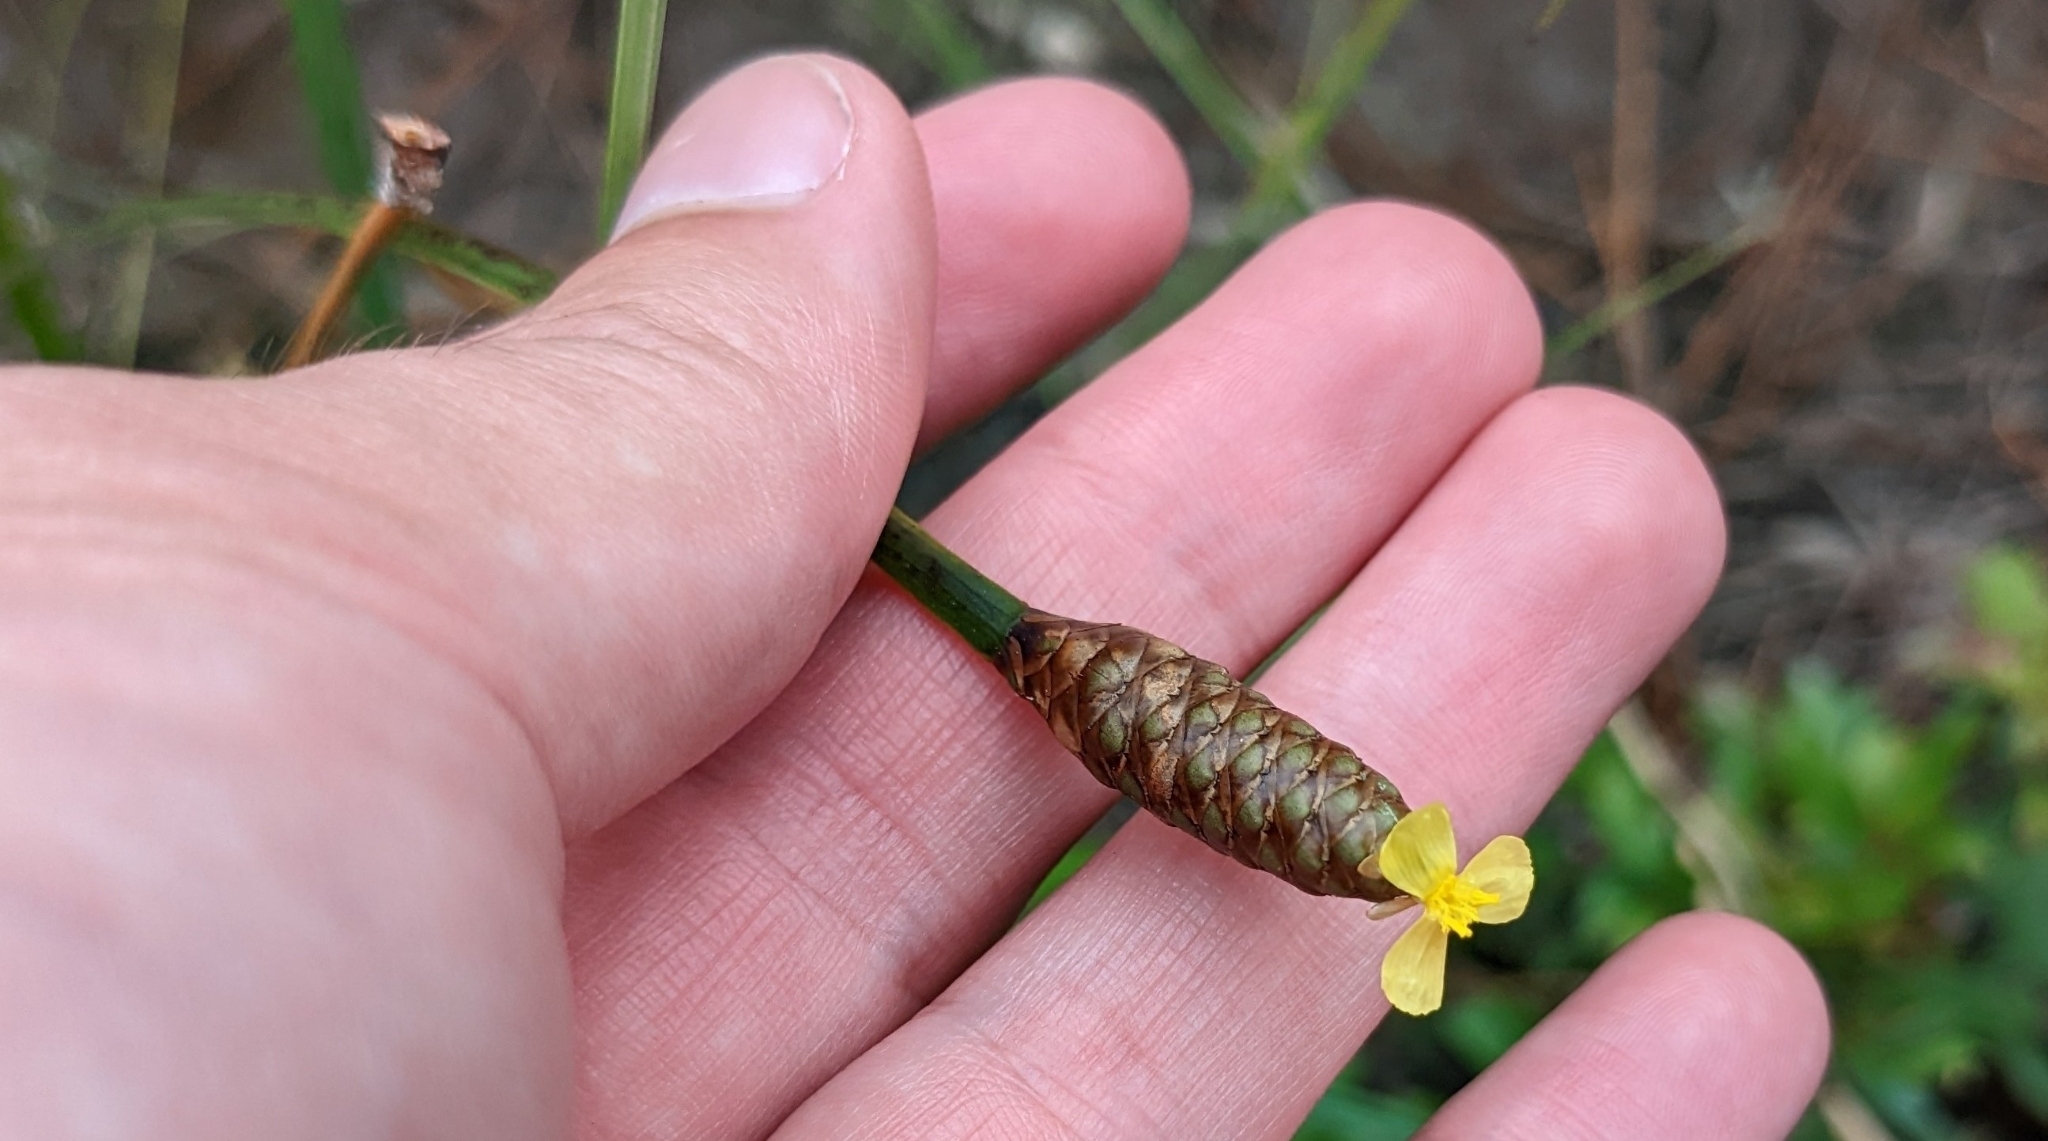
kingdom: Plantae
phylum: Tracheophyta
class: Liliopsida
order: Poales
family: Xyridaceae
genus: Xyris
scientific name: Xyris stricta
